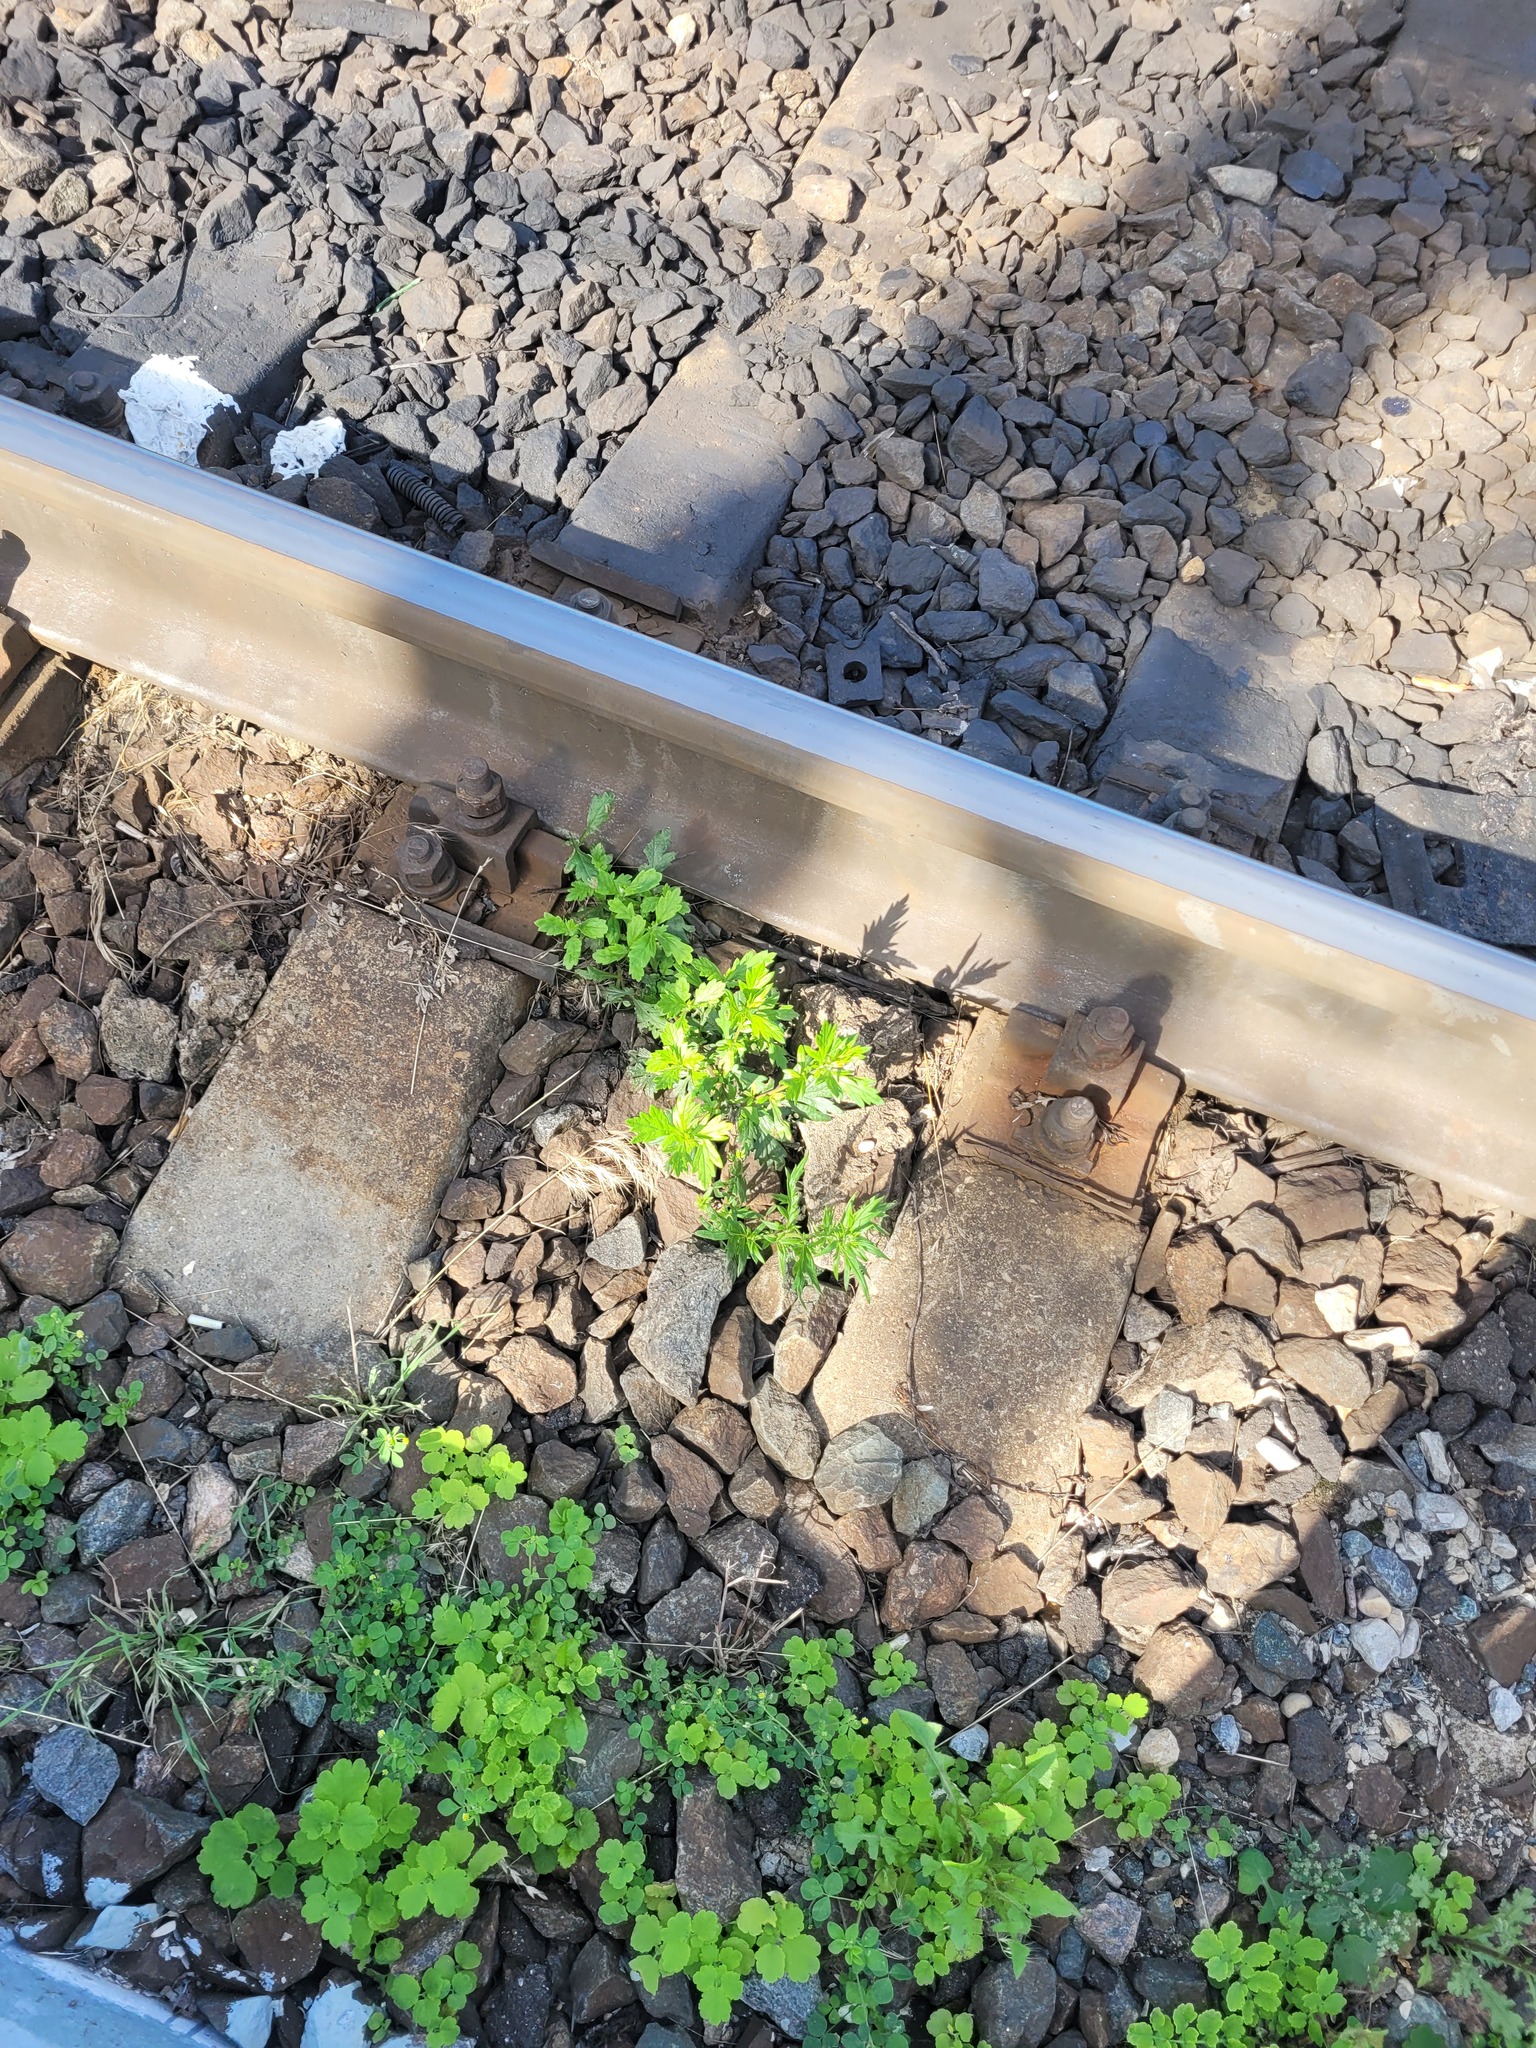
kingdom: Plantae
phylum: Tracheophyta
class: Magnoliopsida
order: Asterales
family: Asteraceae
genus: Artemisia
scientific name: Artemisia vulgaris
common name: Mugwort
